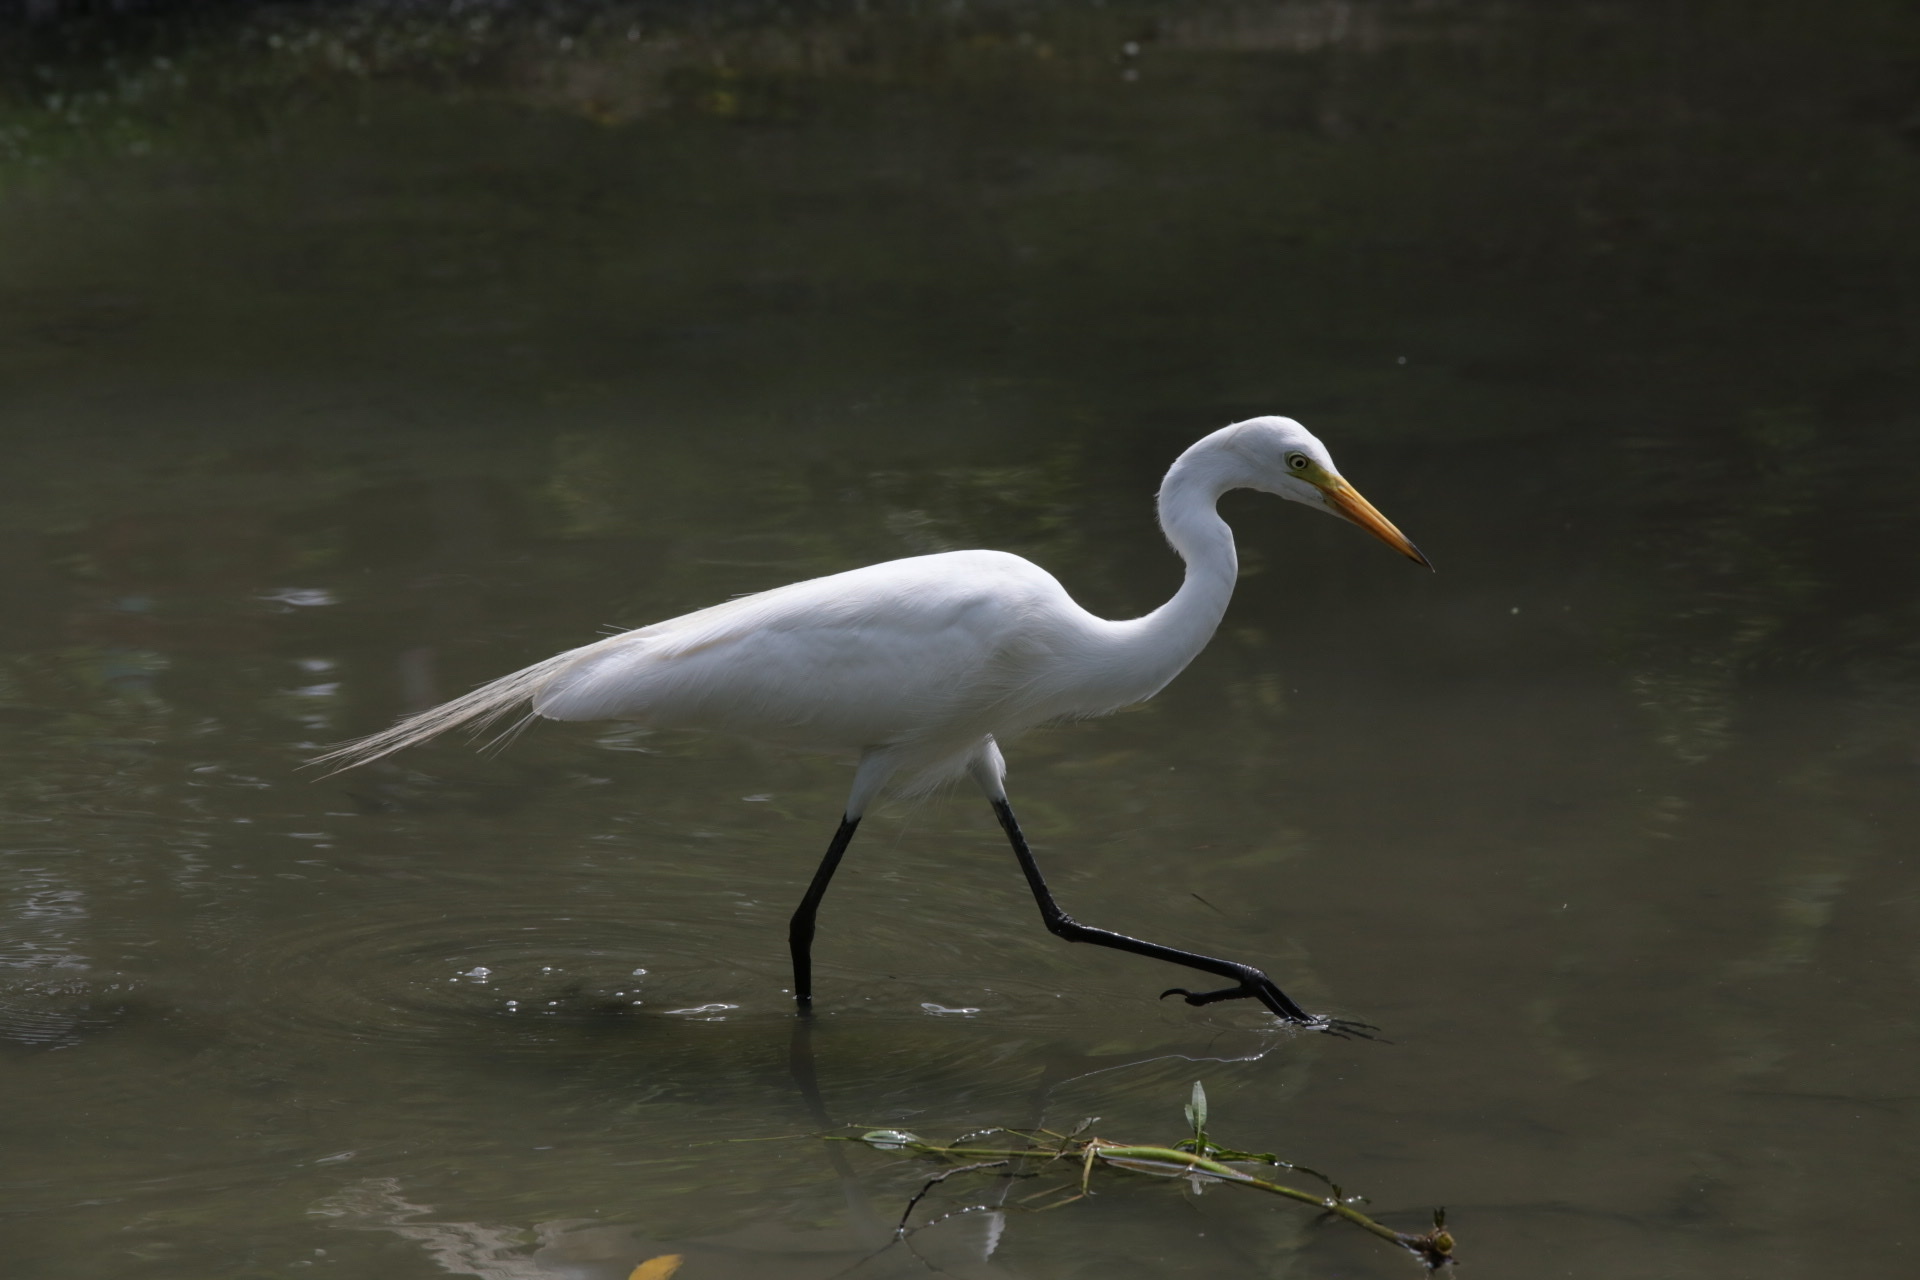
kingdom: Animalia
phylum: Chordata
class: Aves
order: Pelecaniformes
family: Ardeidae
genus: Egretta
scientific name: Egretta intermedia
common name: Intermediate egret
